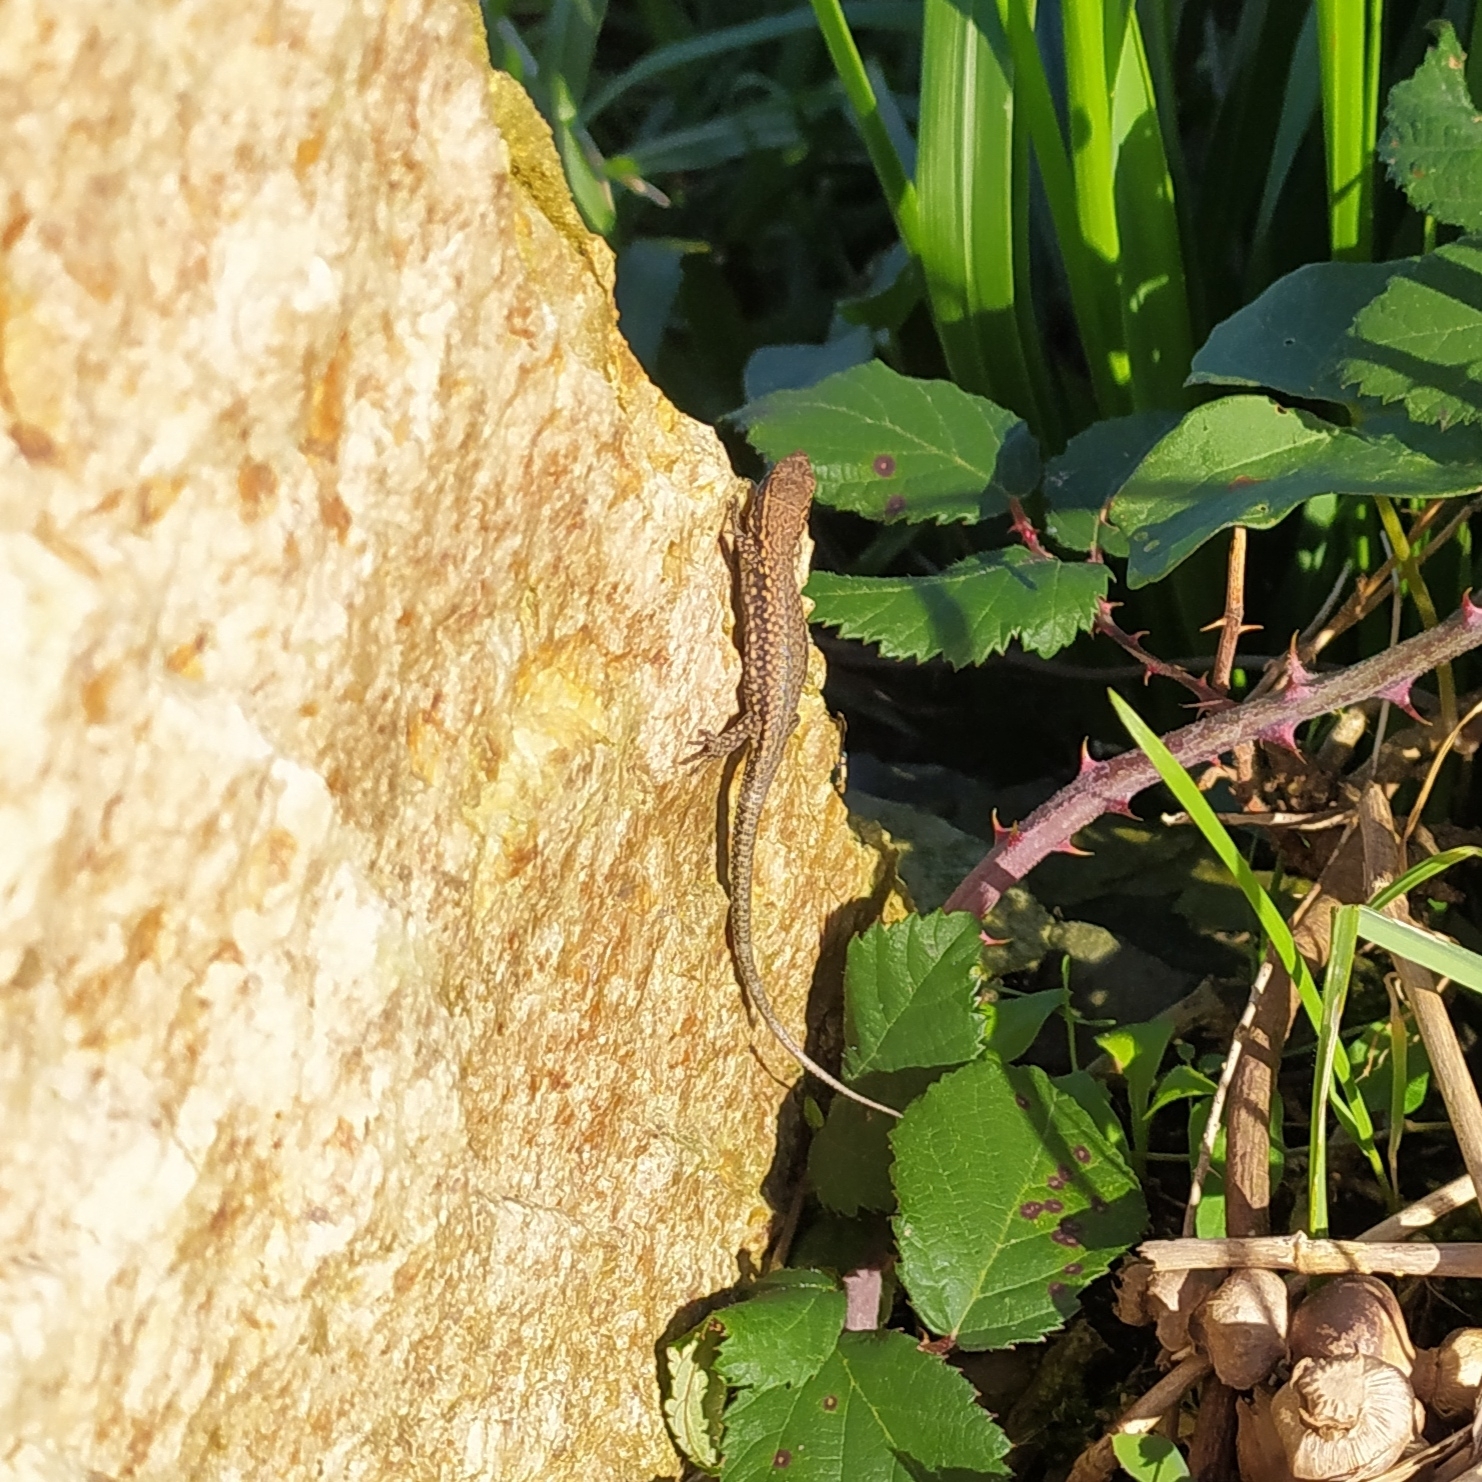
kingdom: Animalia
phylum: Chordata
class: Squamata
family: Lacertidae
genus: Podarcis
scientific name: Podarcis muralis
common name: Common wall lizard
